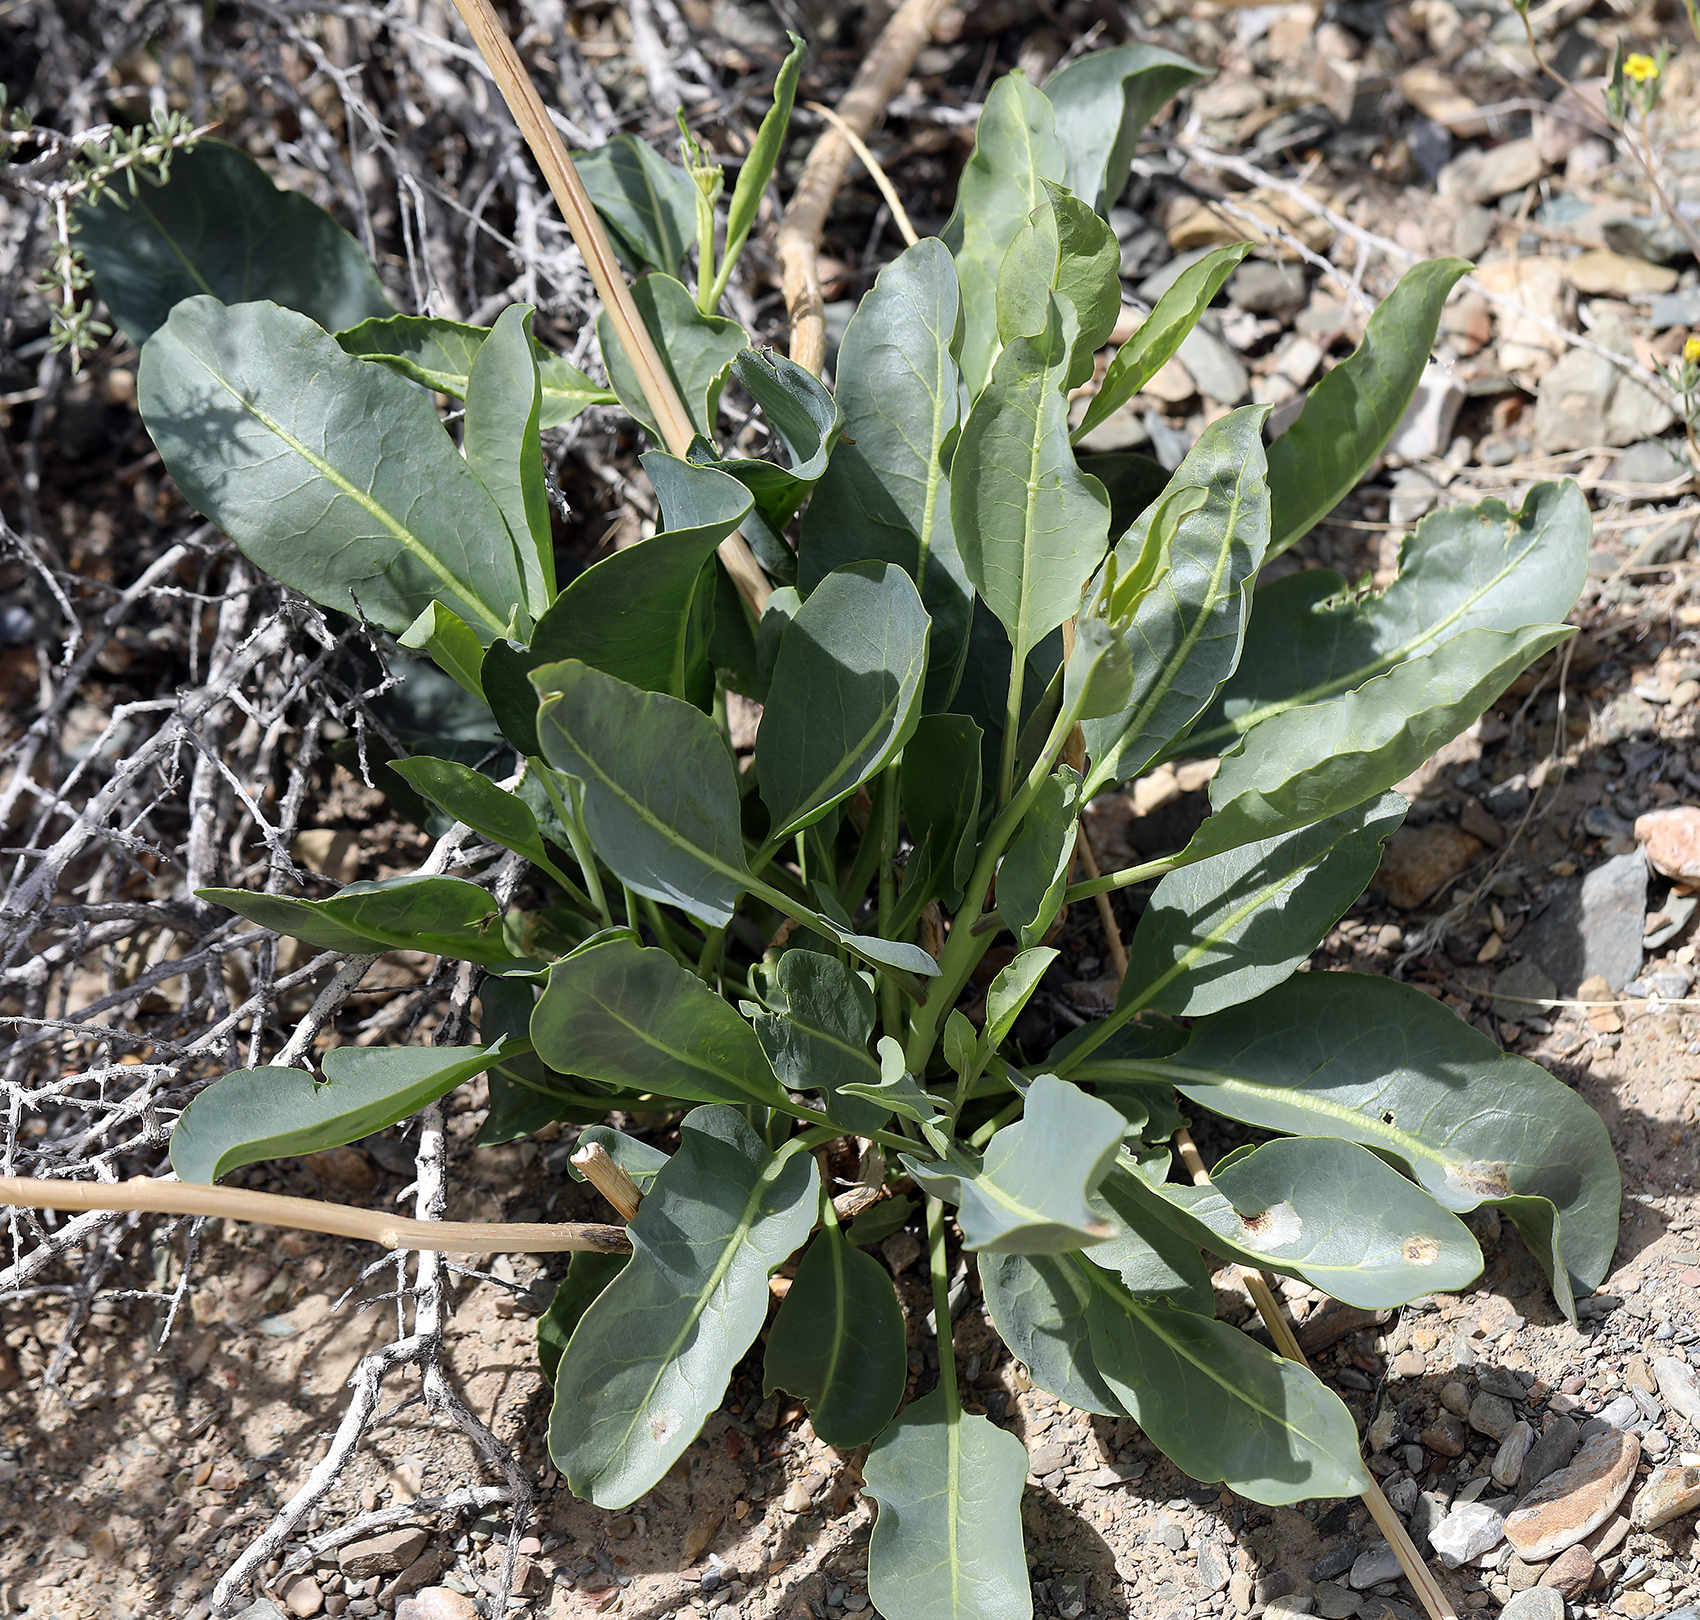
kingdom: Plantae
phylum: Tracheophyta
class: Magnoliopsida
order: Brassicales
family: Brassicaceae
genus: Stanleya
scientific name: Stanleya elata
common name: Panamint prince's plume
